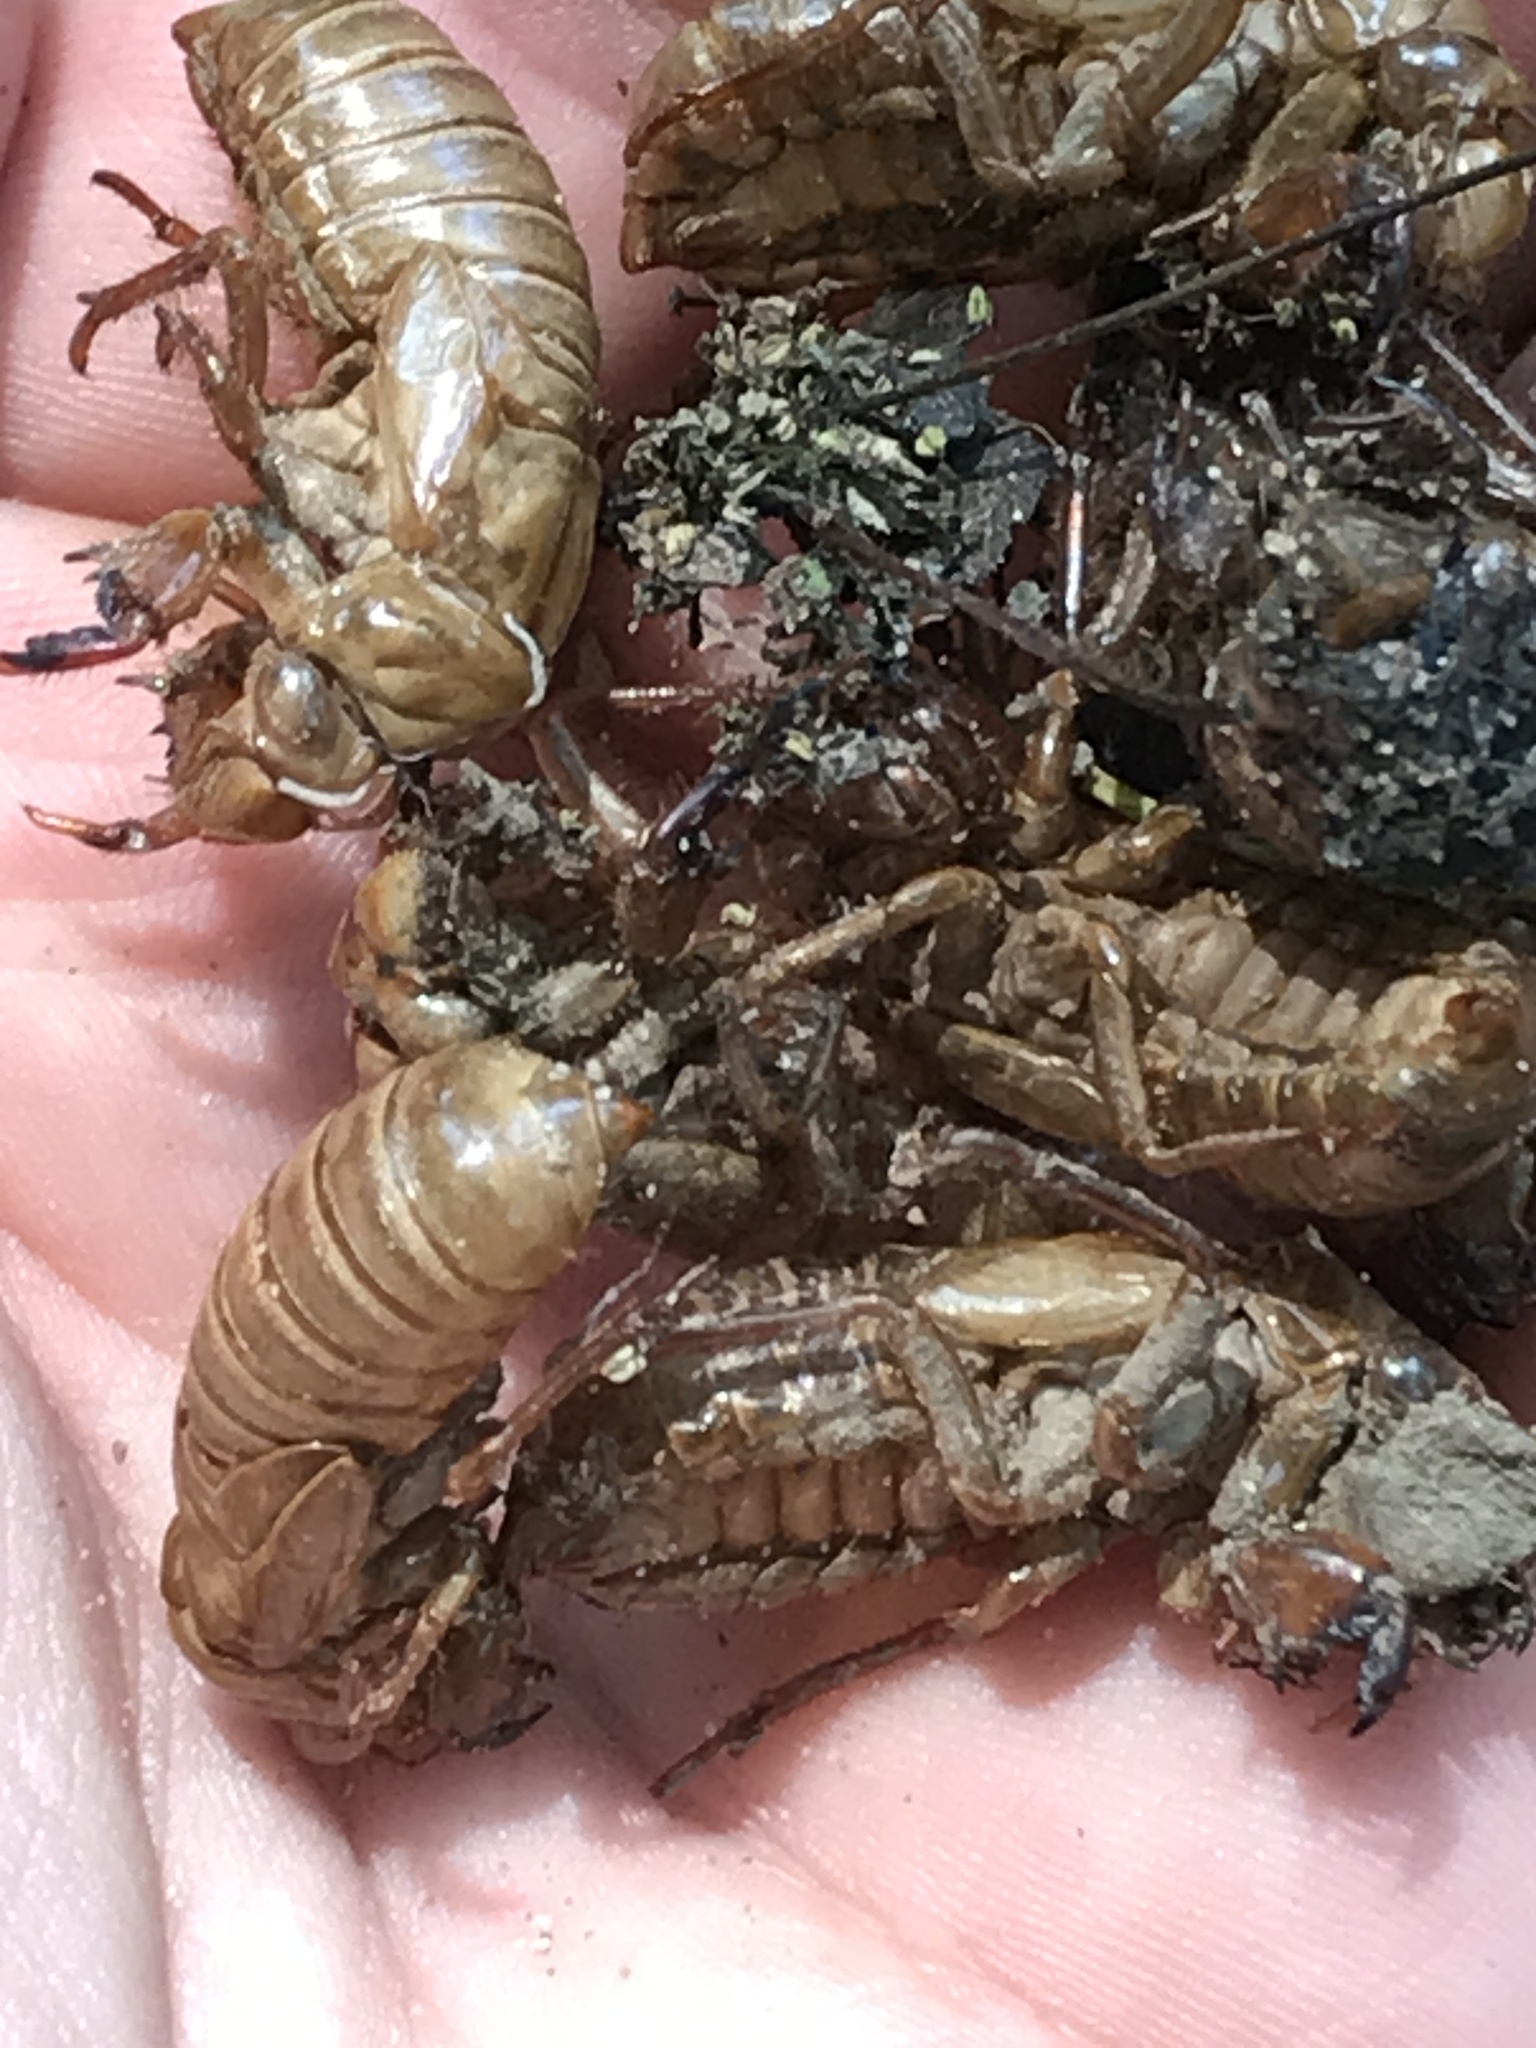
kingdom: Animalia
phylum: Arthropoda
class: Insecta
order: Hemiptera
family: Cicadidae
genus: Magicicada
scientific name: Magicicada
